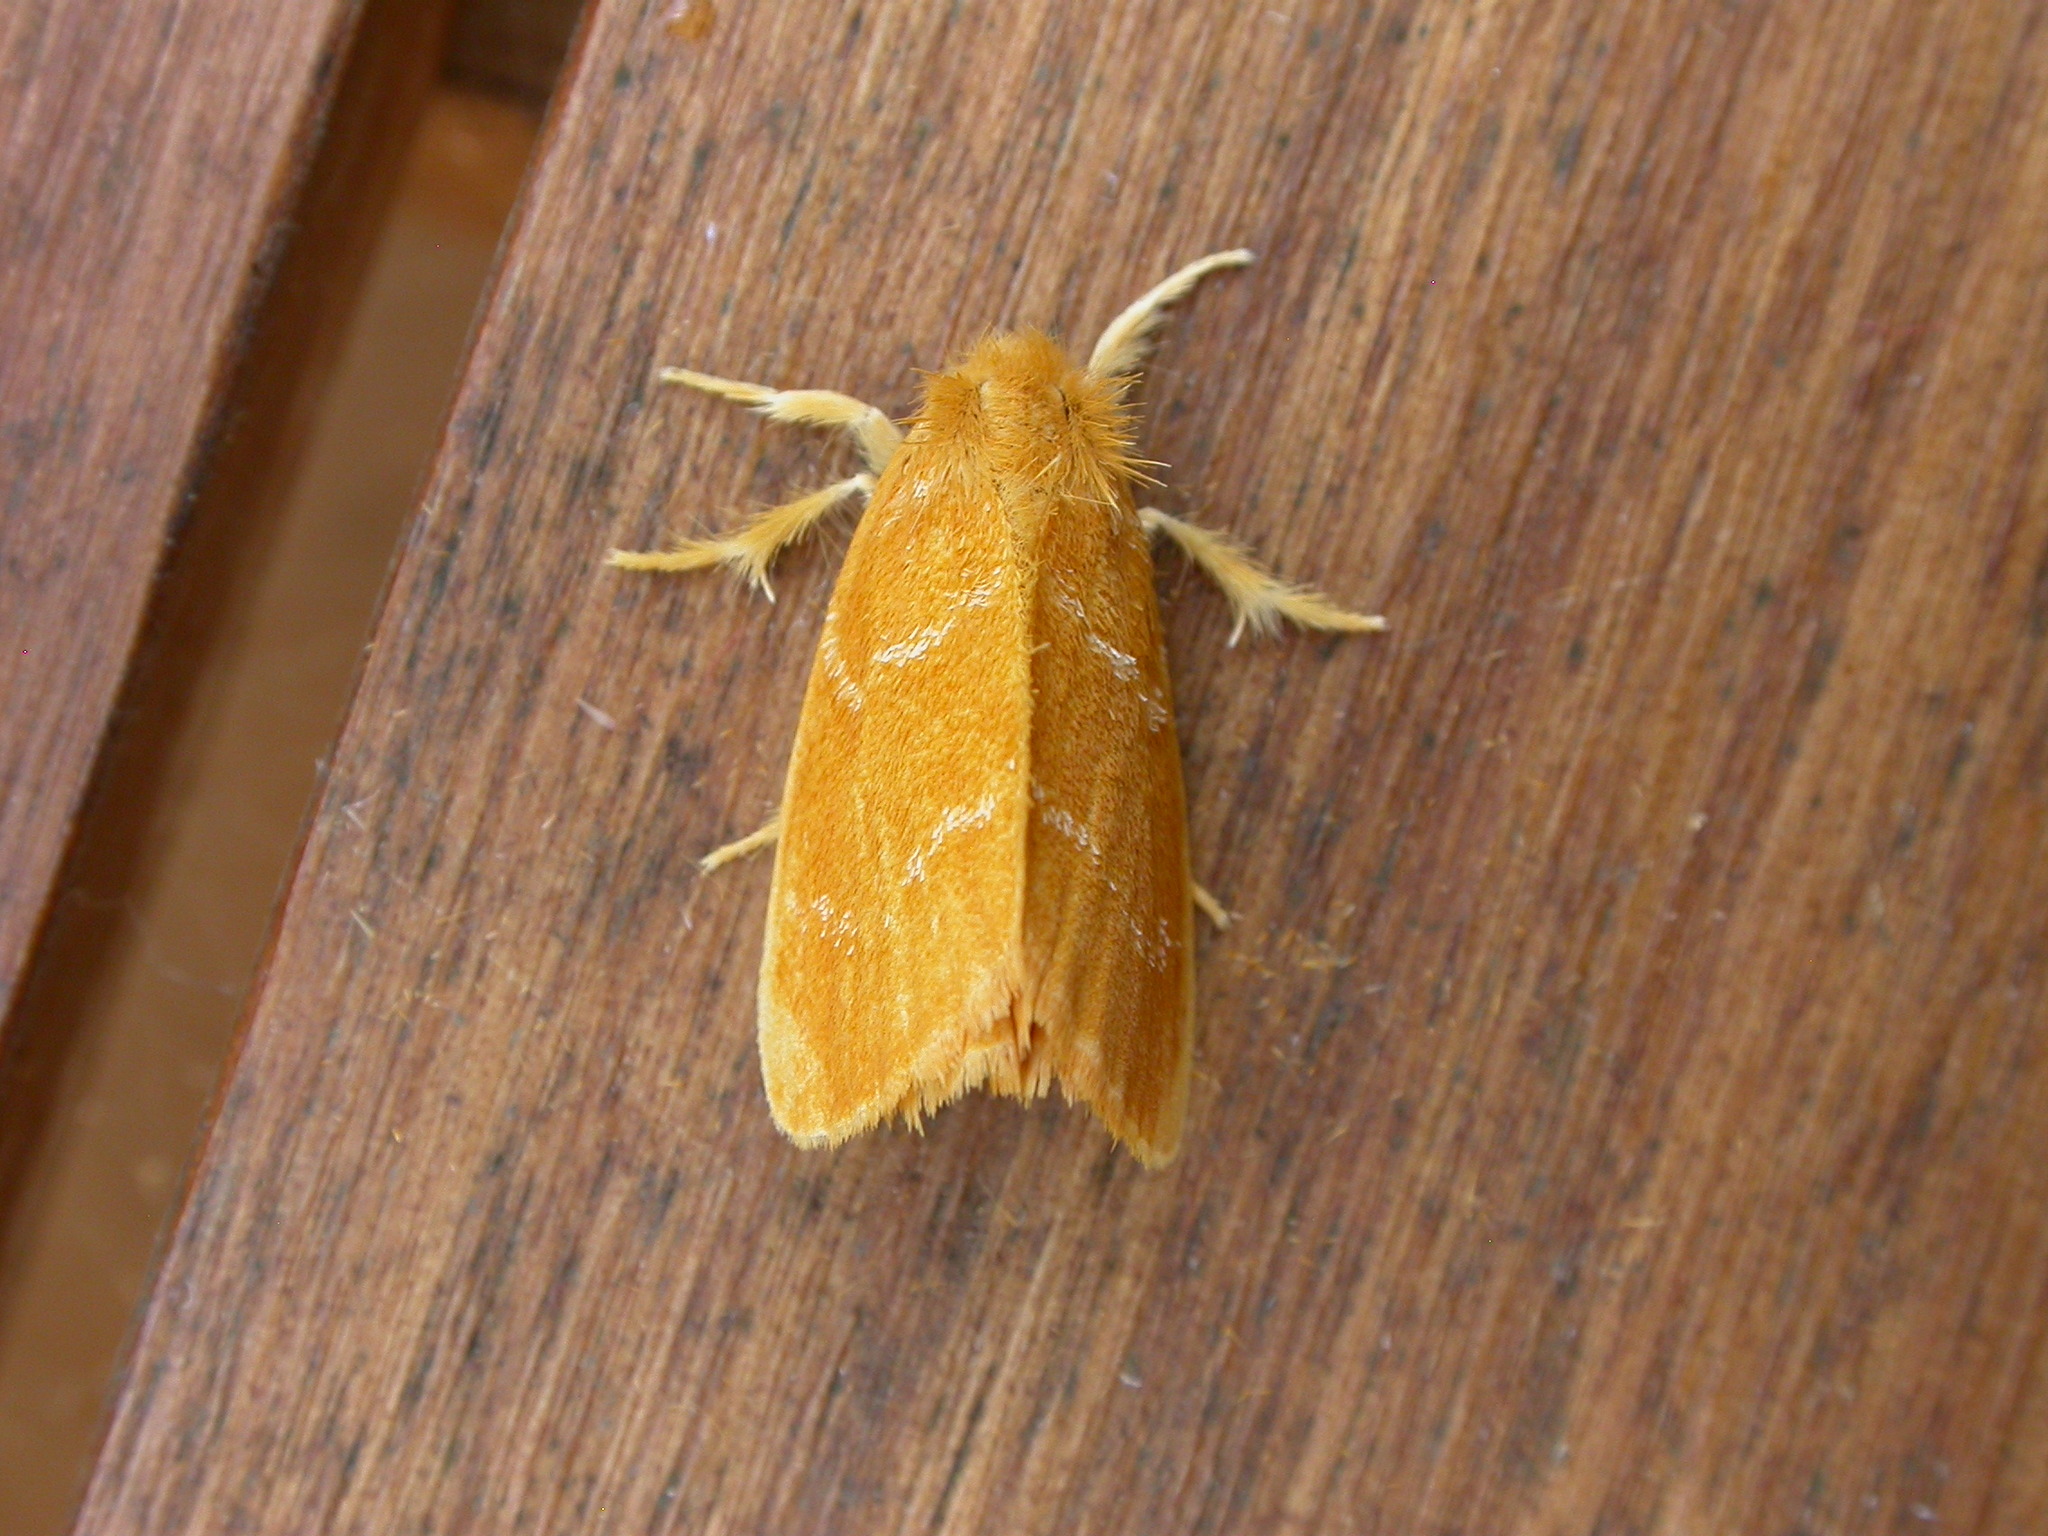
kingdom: Animalia
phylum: Arthropoda
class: Insecta
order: Lepidoptera
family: Erebidae
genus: Euproctis
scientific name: Euproctis lutea
